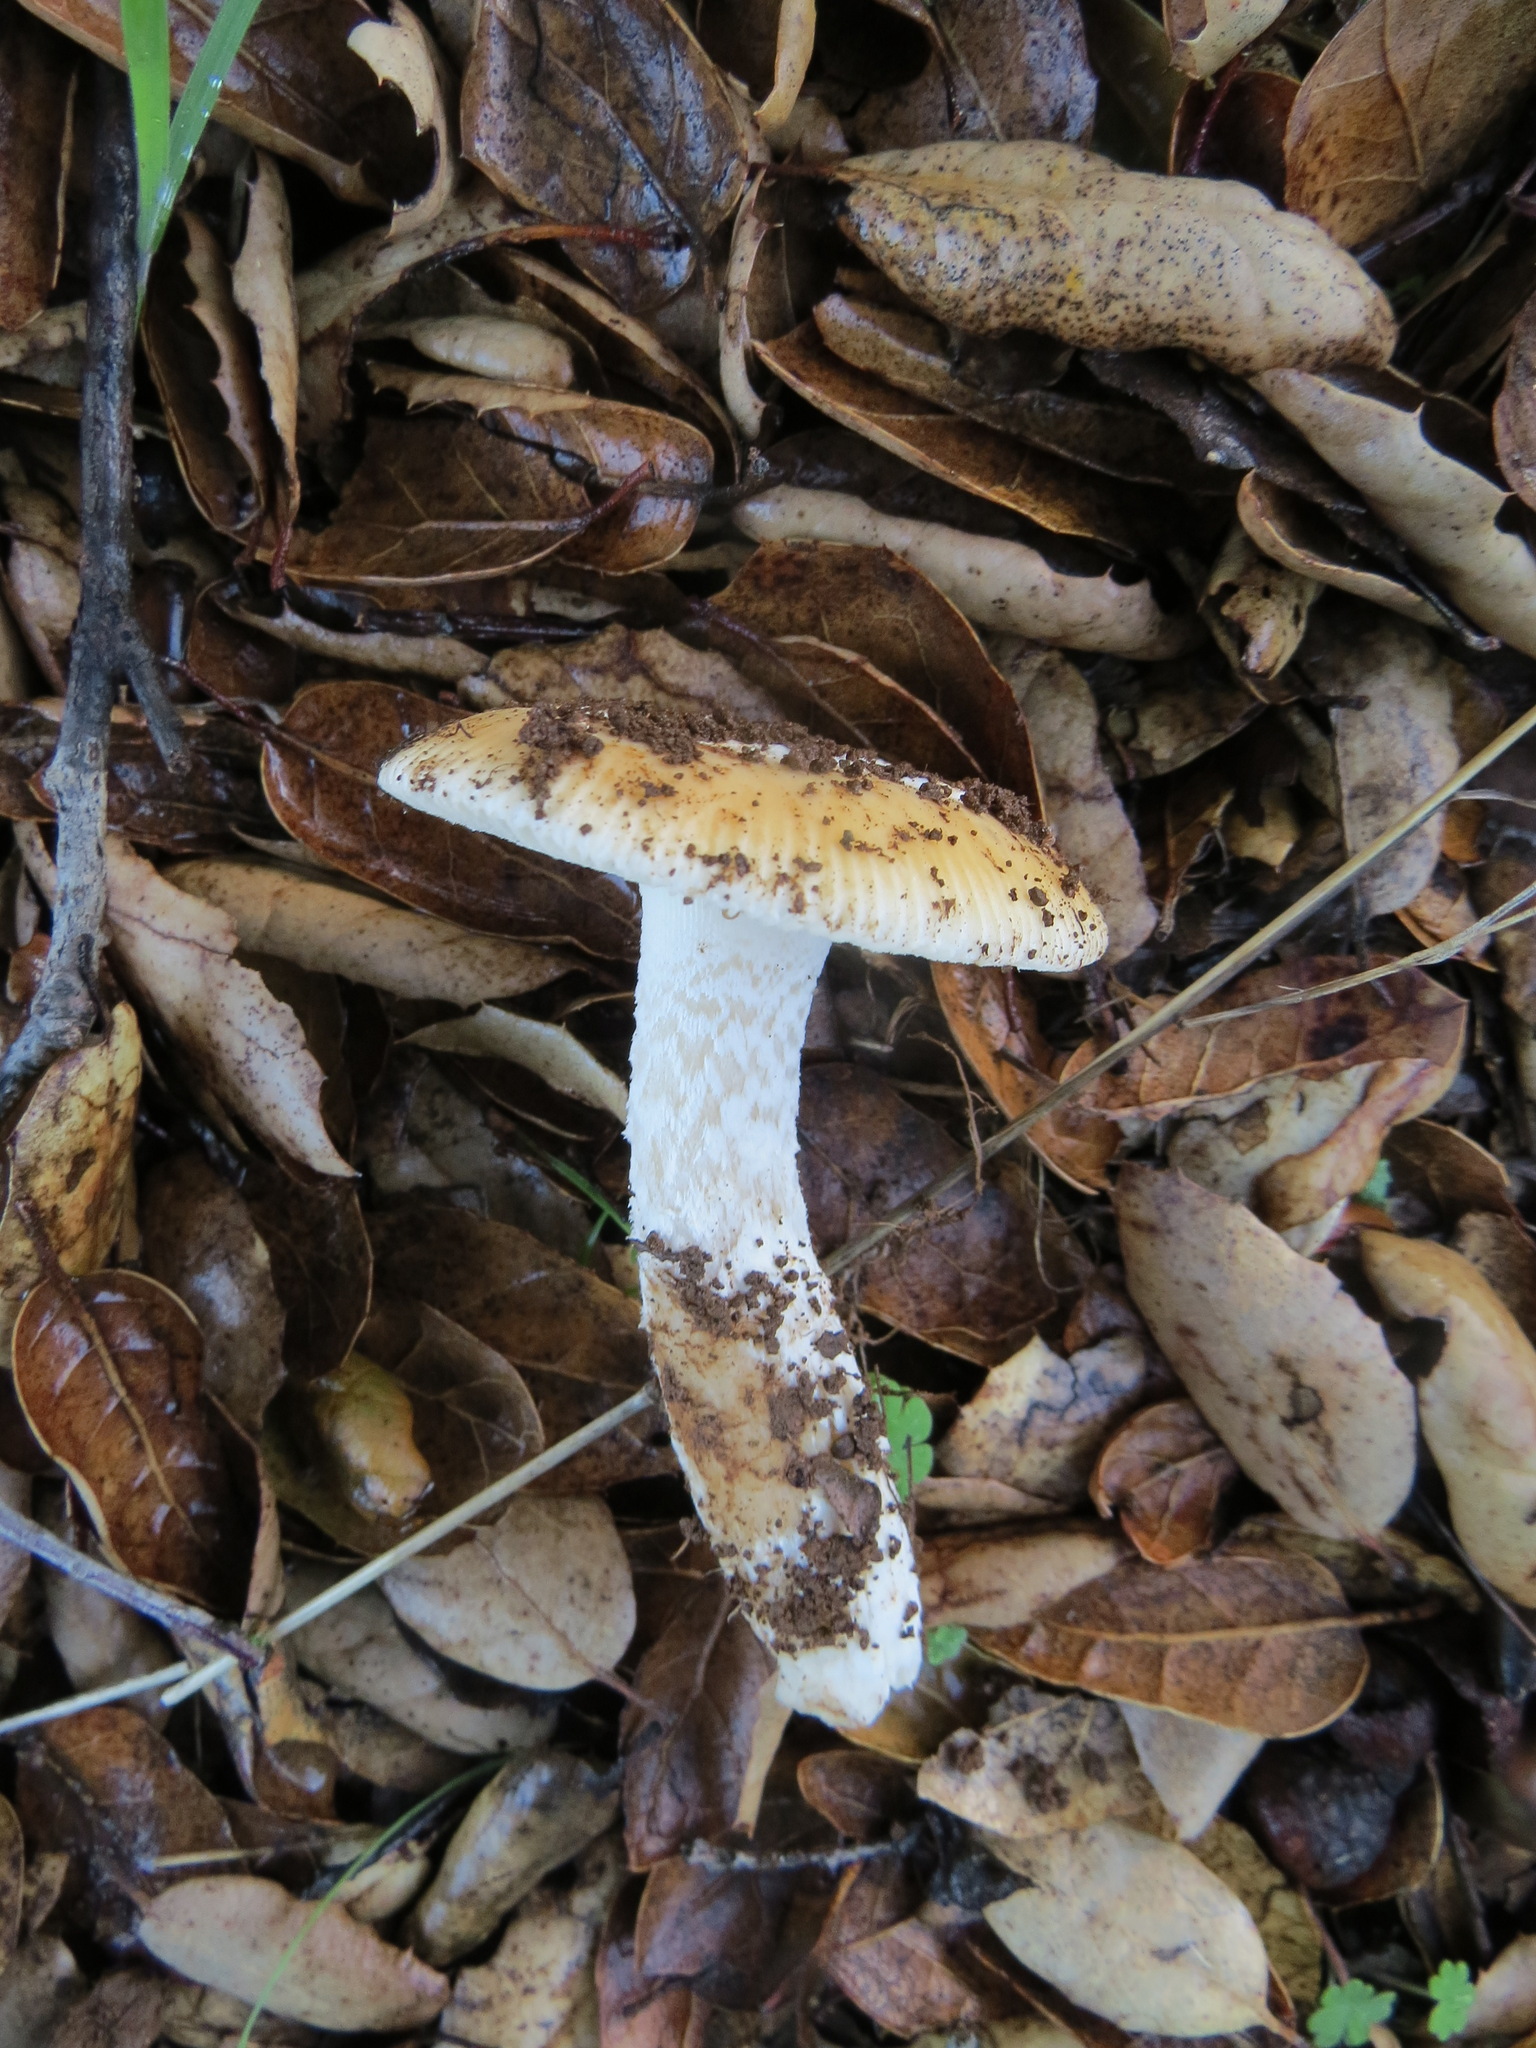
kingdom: Fungi
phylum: Basidiomycota
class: Agaricomycetes
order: Agaricales
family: Amanitaceae
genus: Amanita
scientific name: Amanita velosa
